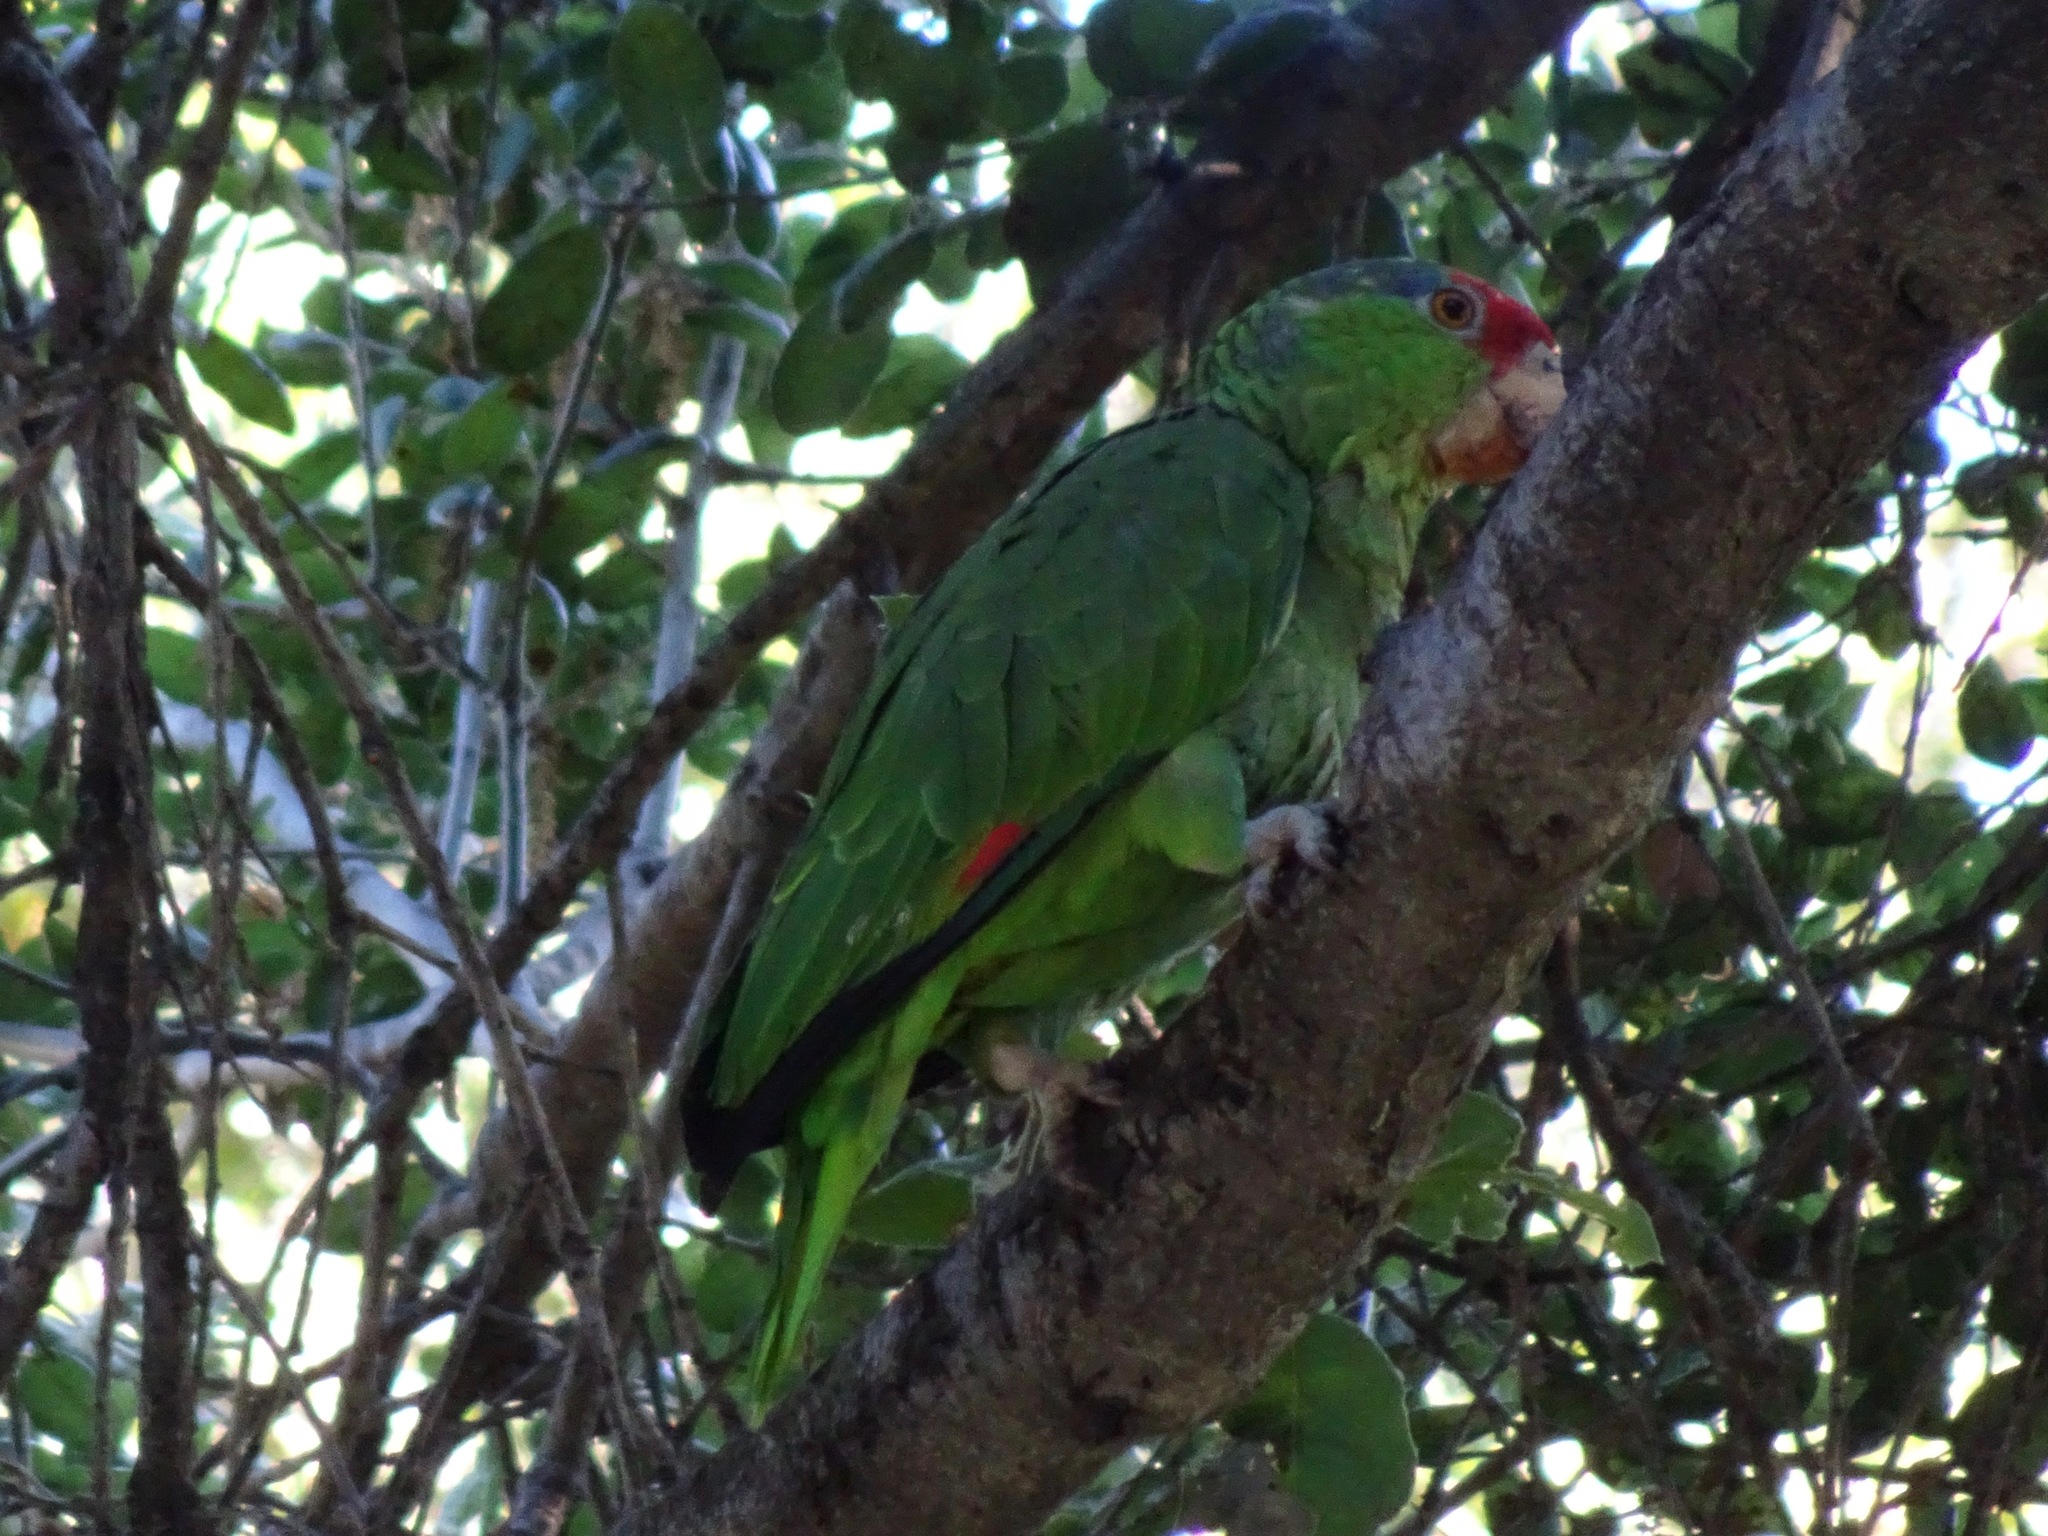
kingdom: Animalia
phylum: Chordata
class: Aves
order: Psittaciformes
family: Psittacidae
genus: Amazona
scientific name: Amazona viridigenalis
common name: Red-crowned amazon
